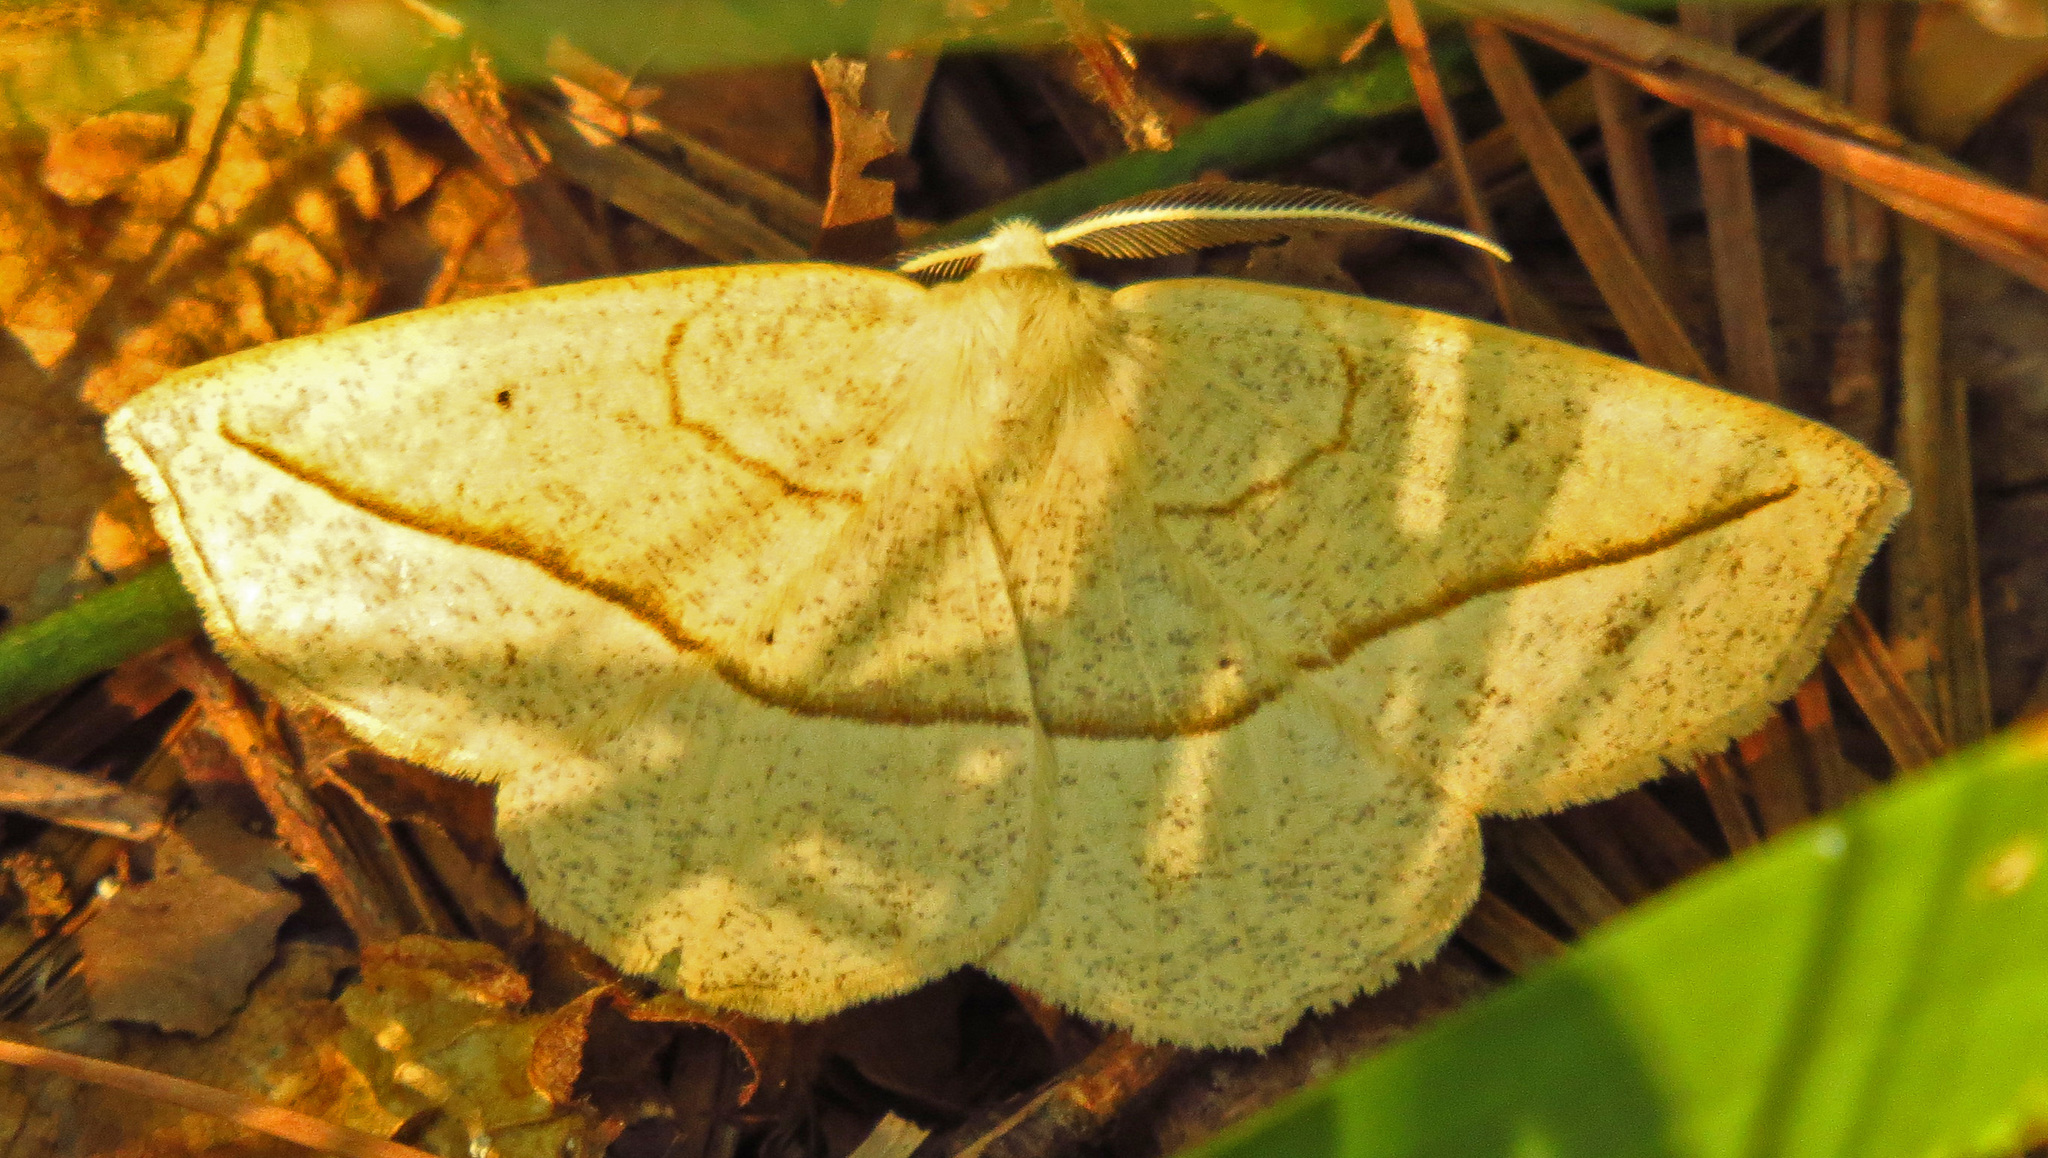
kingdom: Animalia
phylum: Arthropoda
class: Insecta
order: Lepidoptera
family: Geometridae
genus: Eusarca
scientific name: Eusarca confusaria
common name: Confused eusarca
